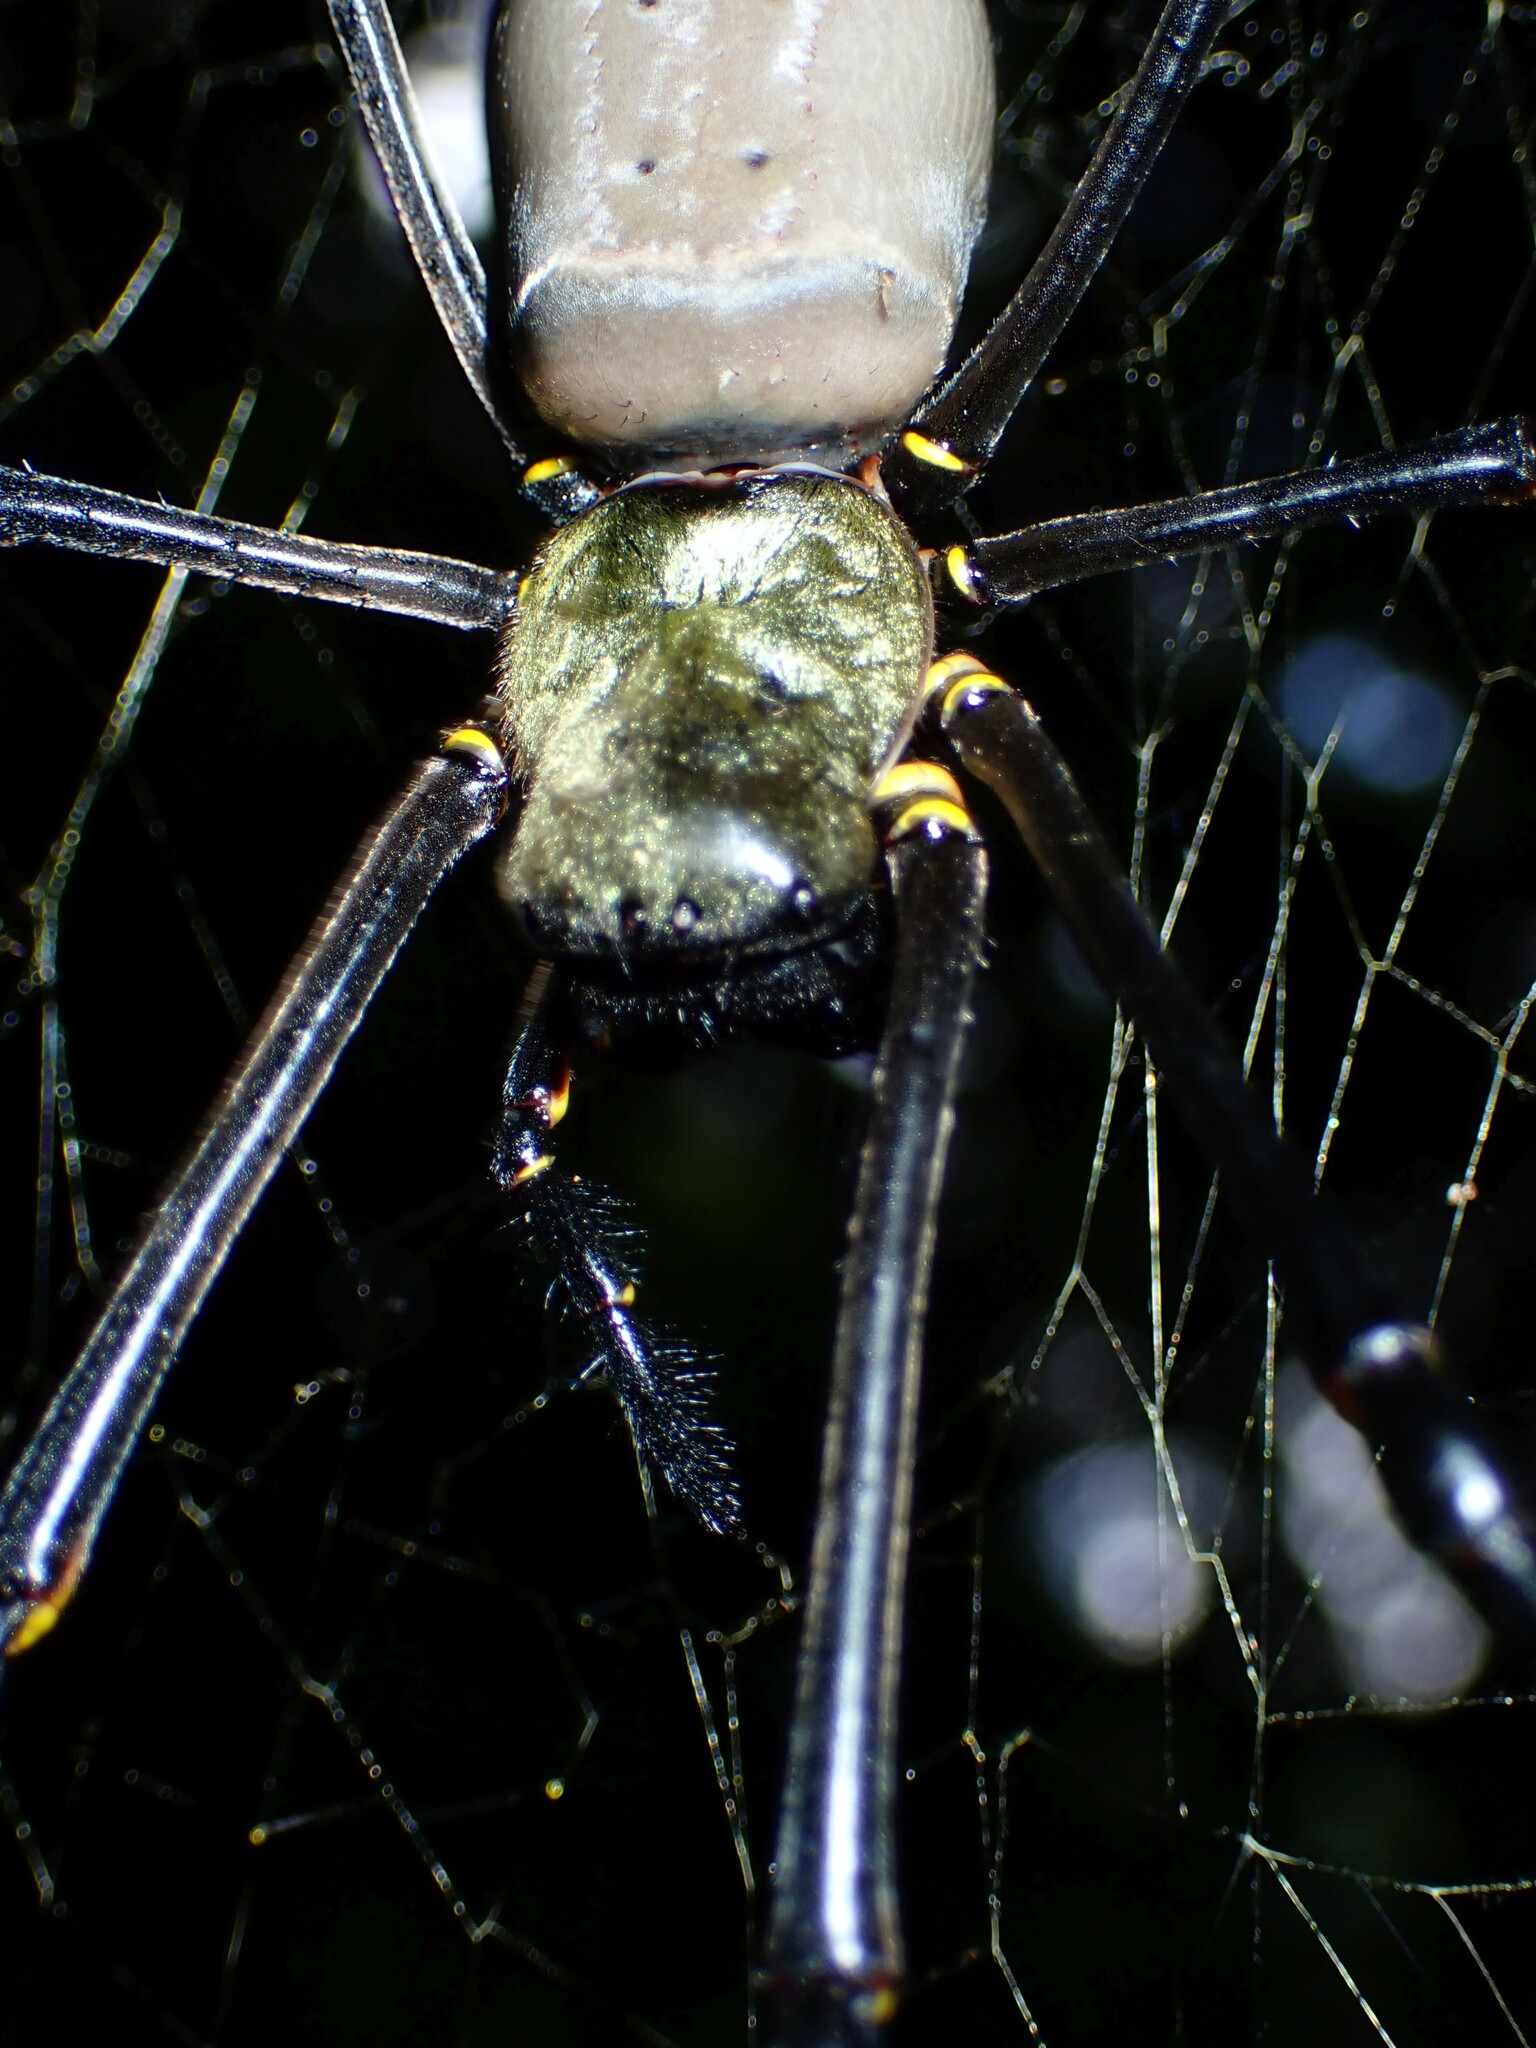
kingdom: Animalia
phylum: Arthropoda
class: Arachnida
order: Araneae
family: Araneidae
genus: Nephila
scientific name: Nephila pilipes
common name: Giant golden orb weaver
